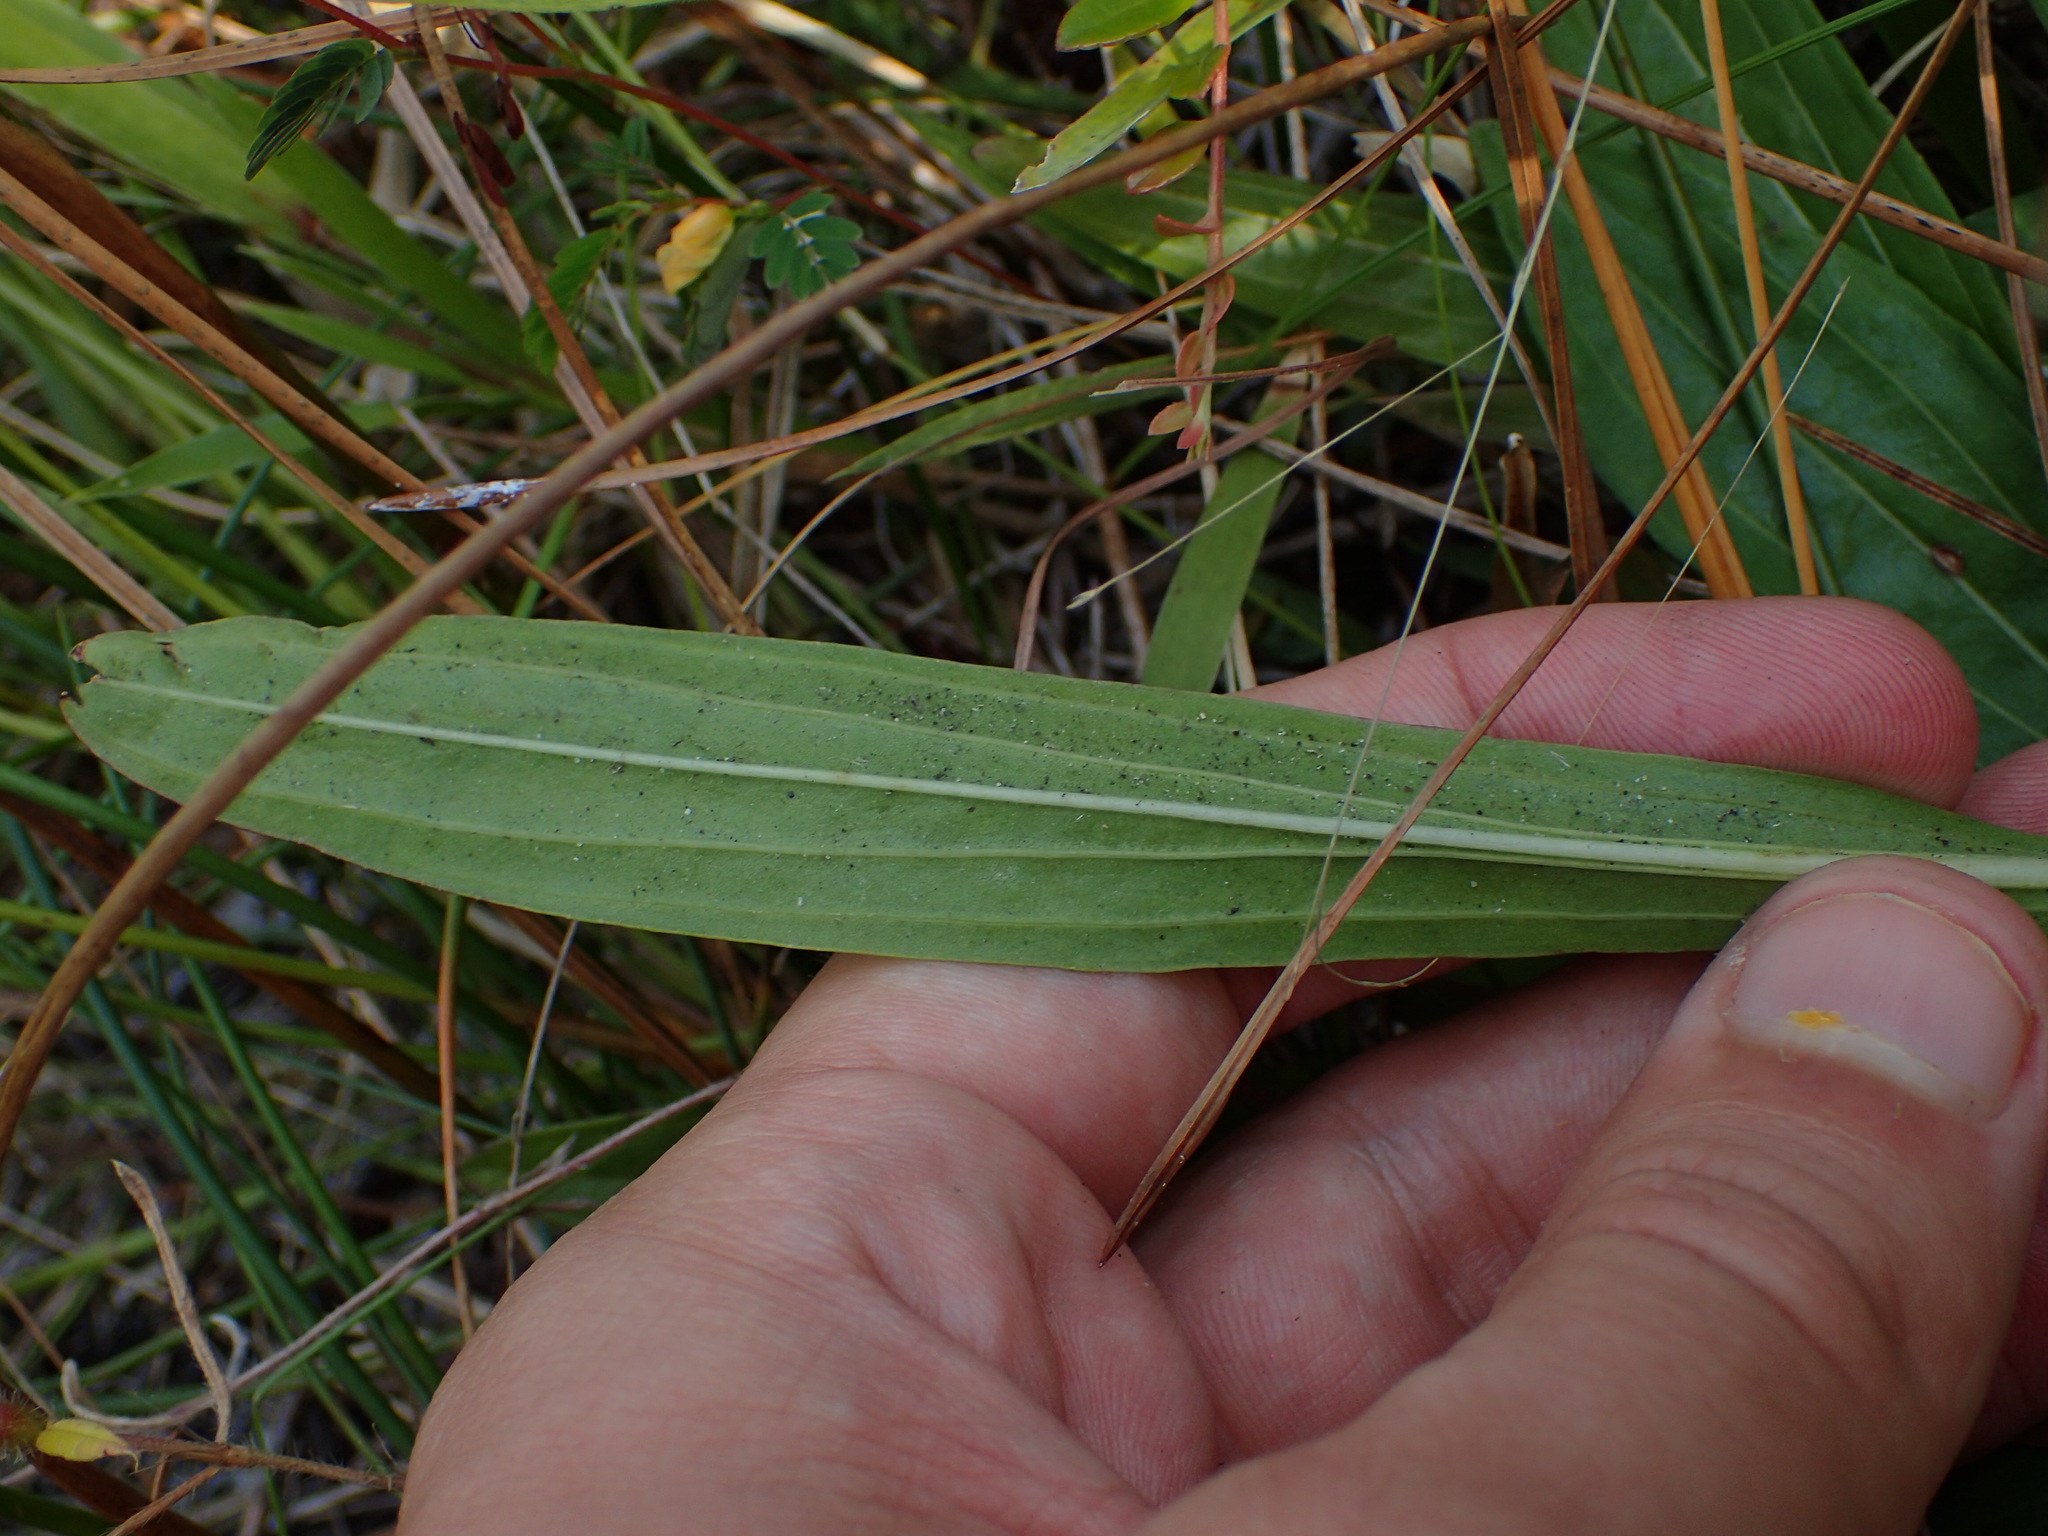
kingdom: Plantae
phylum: Tracheophyta
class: Magnoliopsida
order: Asterales
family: Asteraceae
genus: Carphephorus
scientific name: Carphephorus paniculatus
